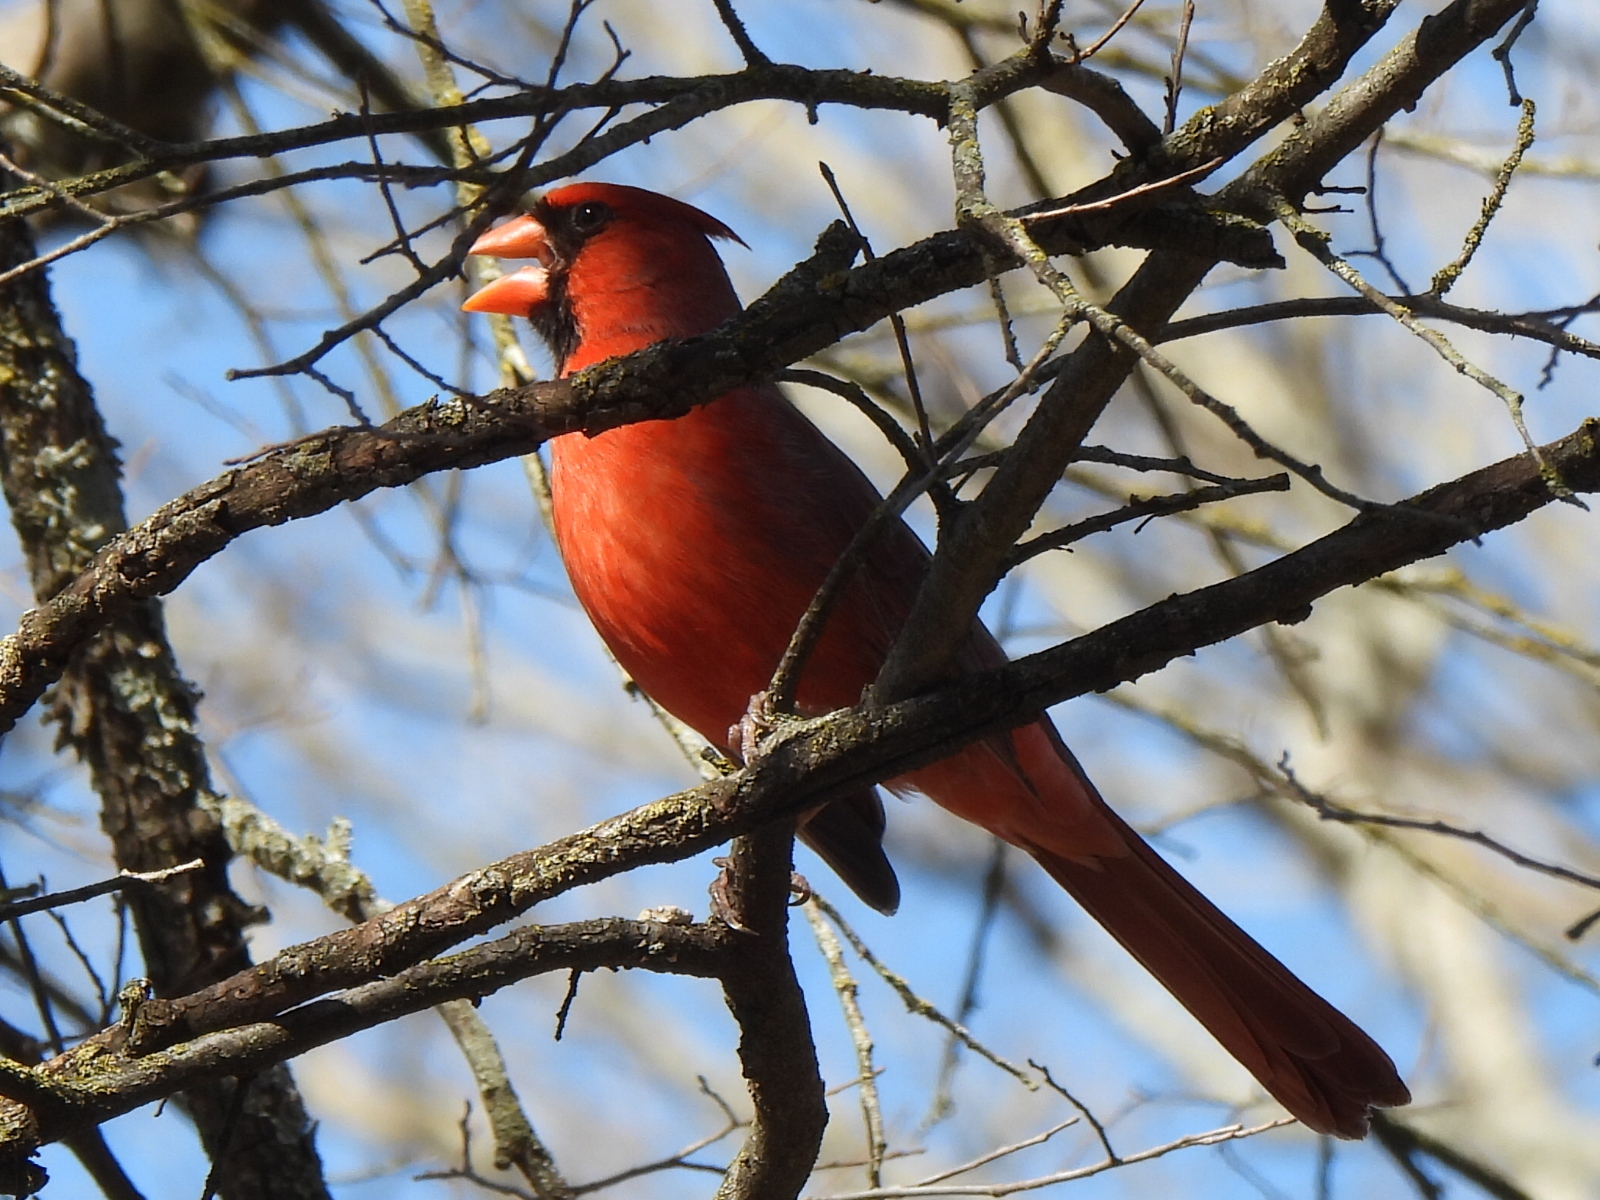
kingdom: Animalia
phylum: Chordata
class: Aves
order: Passeriformes
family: Cardinalidae
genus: Cardinalis
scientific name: Cardinalis cardinalis
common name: Northern cardinal
